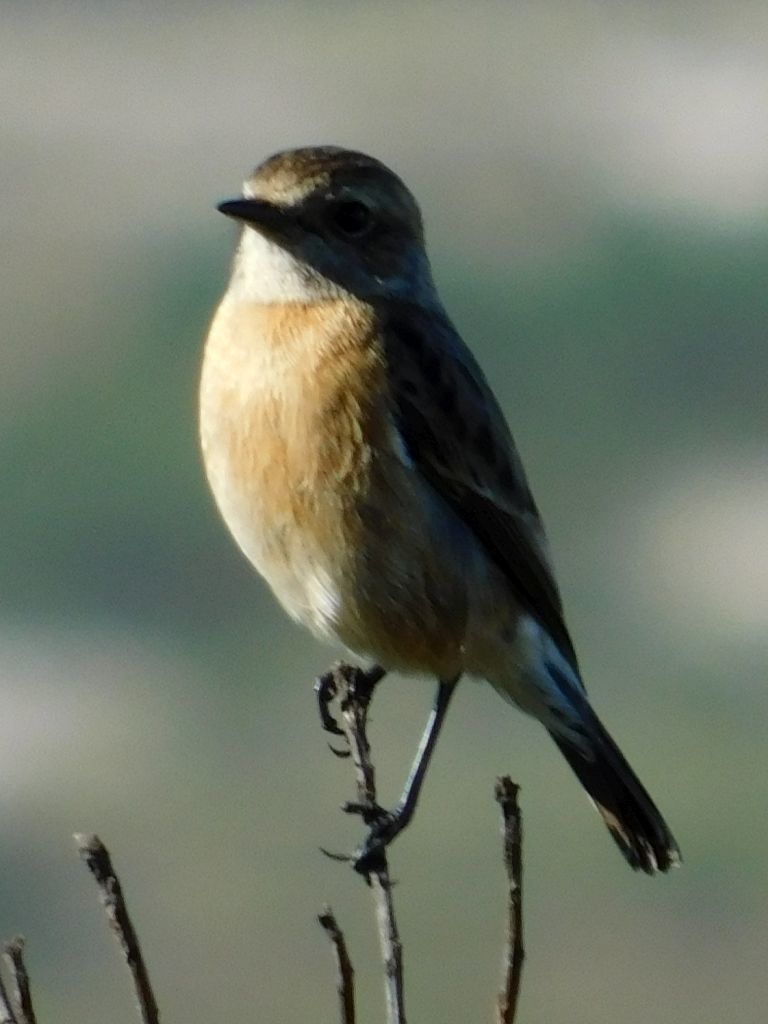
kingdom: Animalia
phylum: Chordata
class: Aves
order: Passeriformes
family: Muscicapidae
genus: Saxicola
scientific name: Saxicola torquatus
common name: African stonechat
